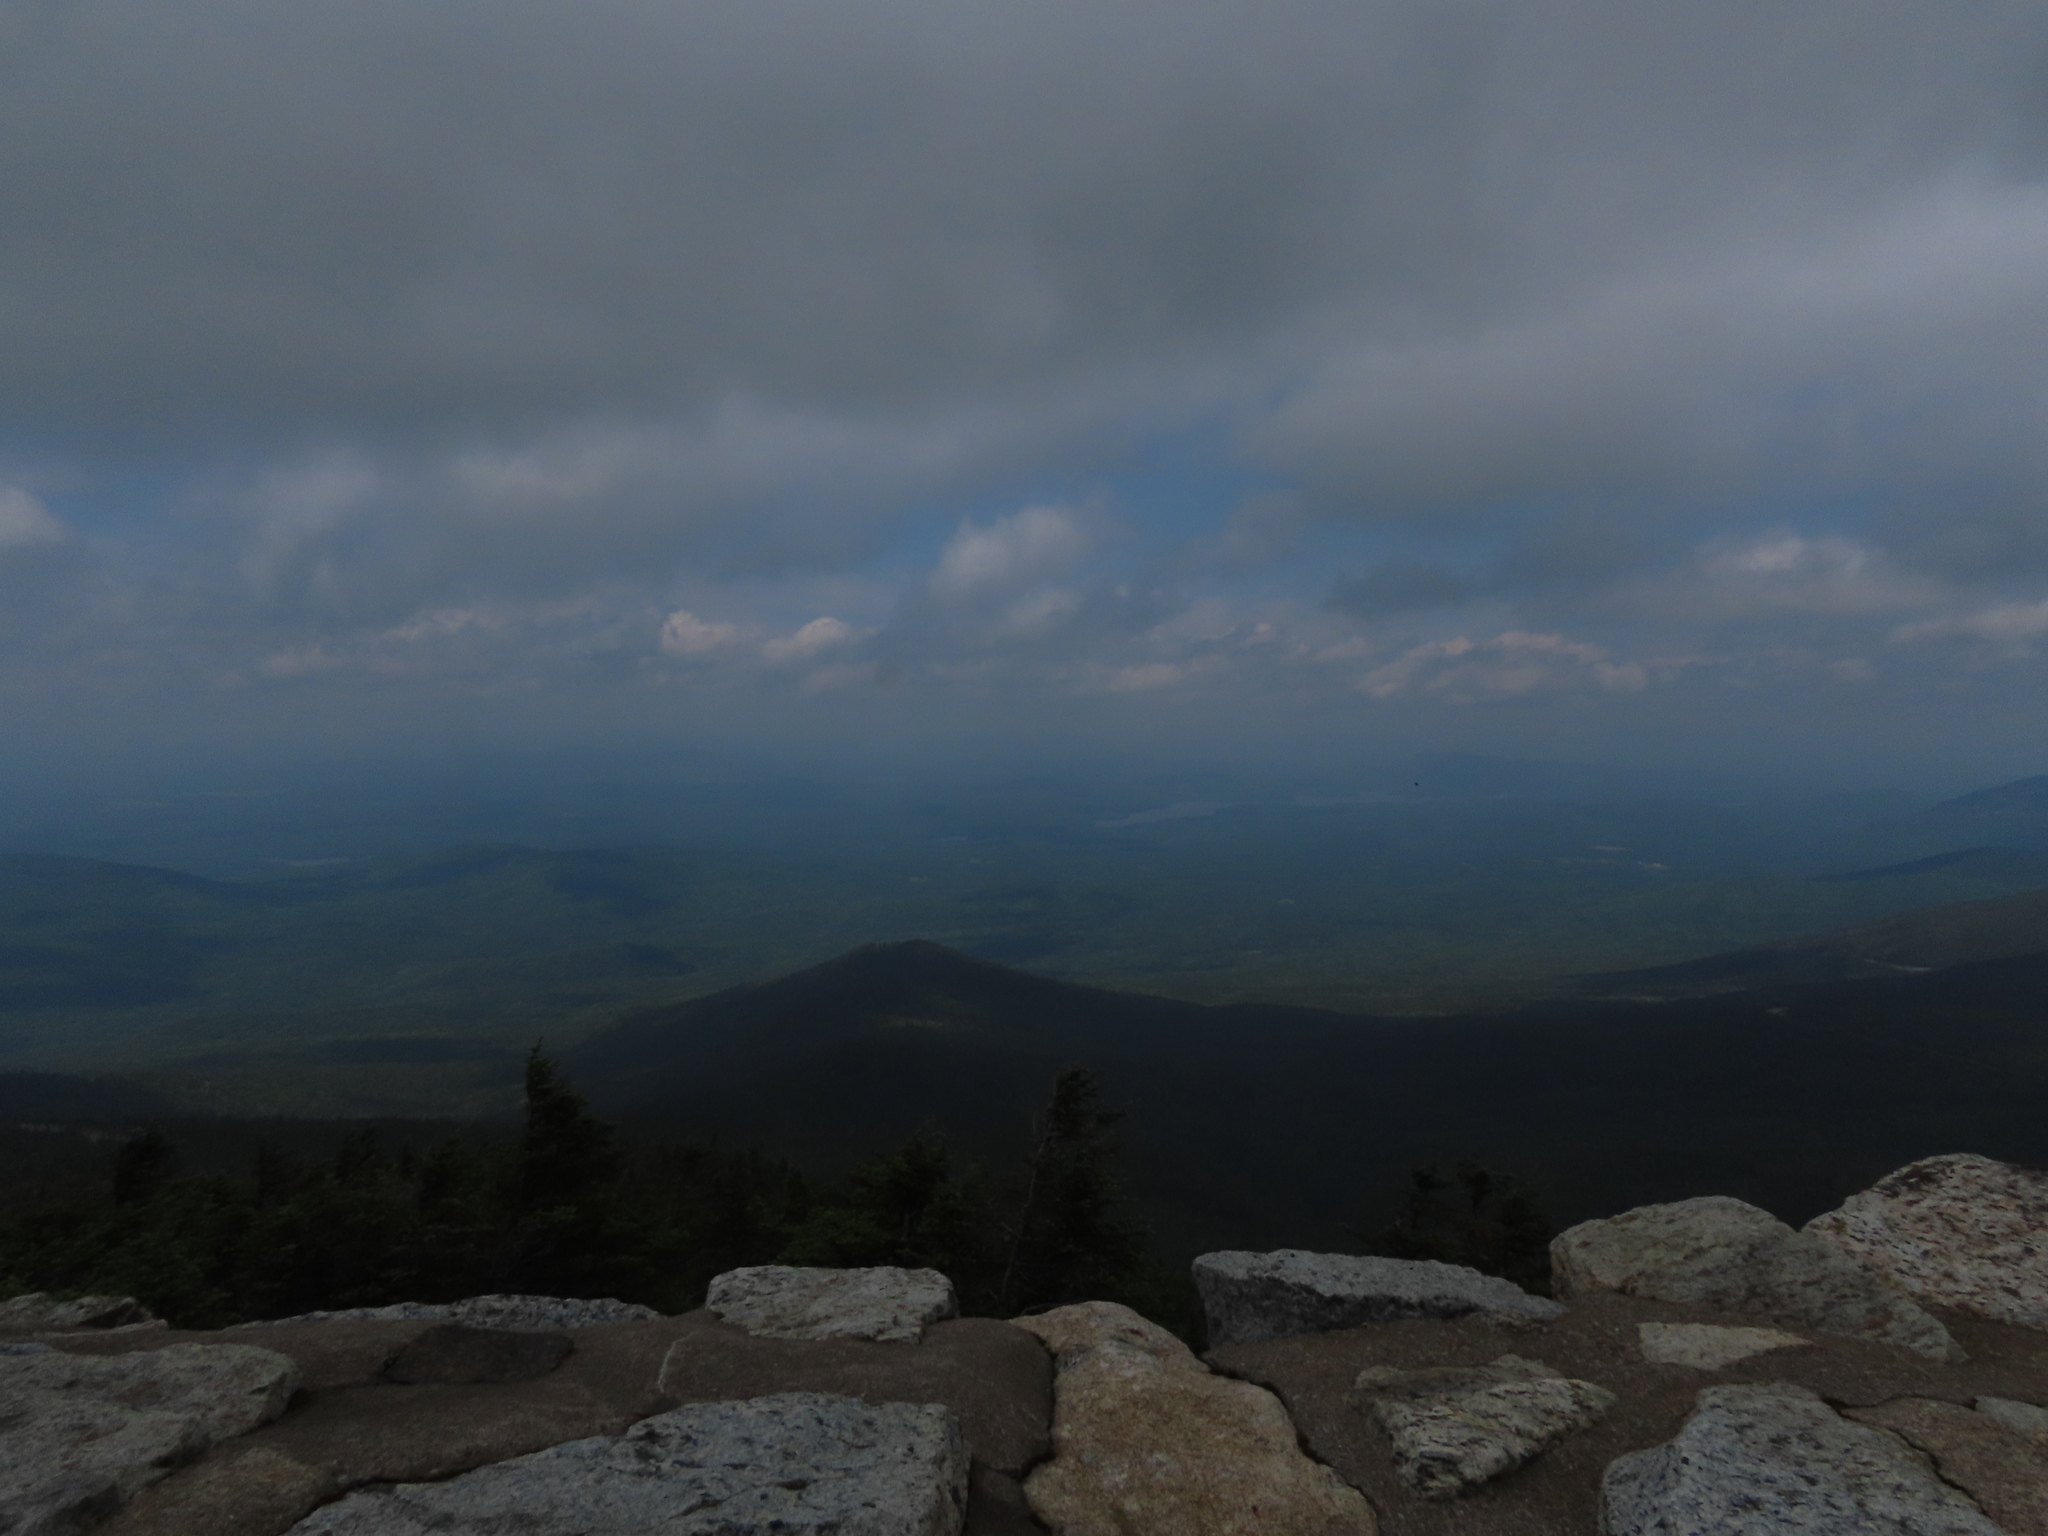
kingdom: Animalia
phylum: Chordata
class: Aves
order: Passeriformes
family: Passerellidae
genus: Junco
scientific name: Junco hyemalis
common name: Dark-eyed junco
